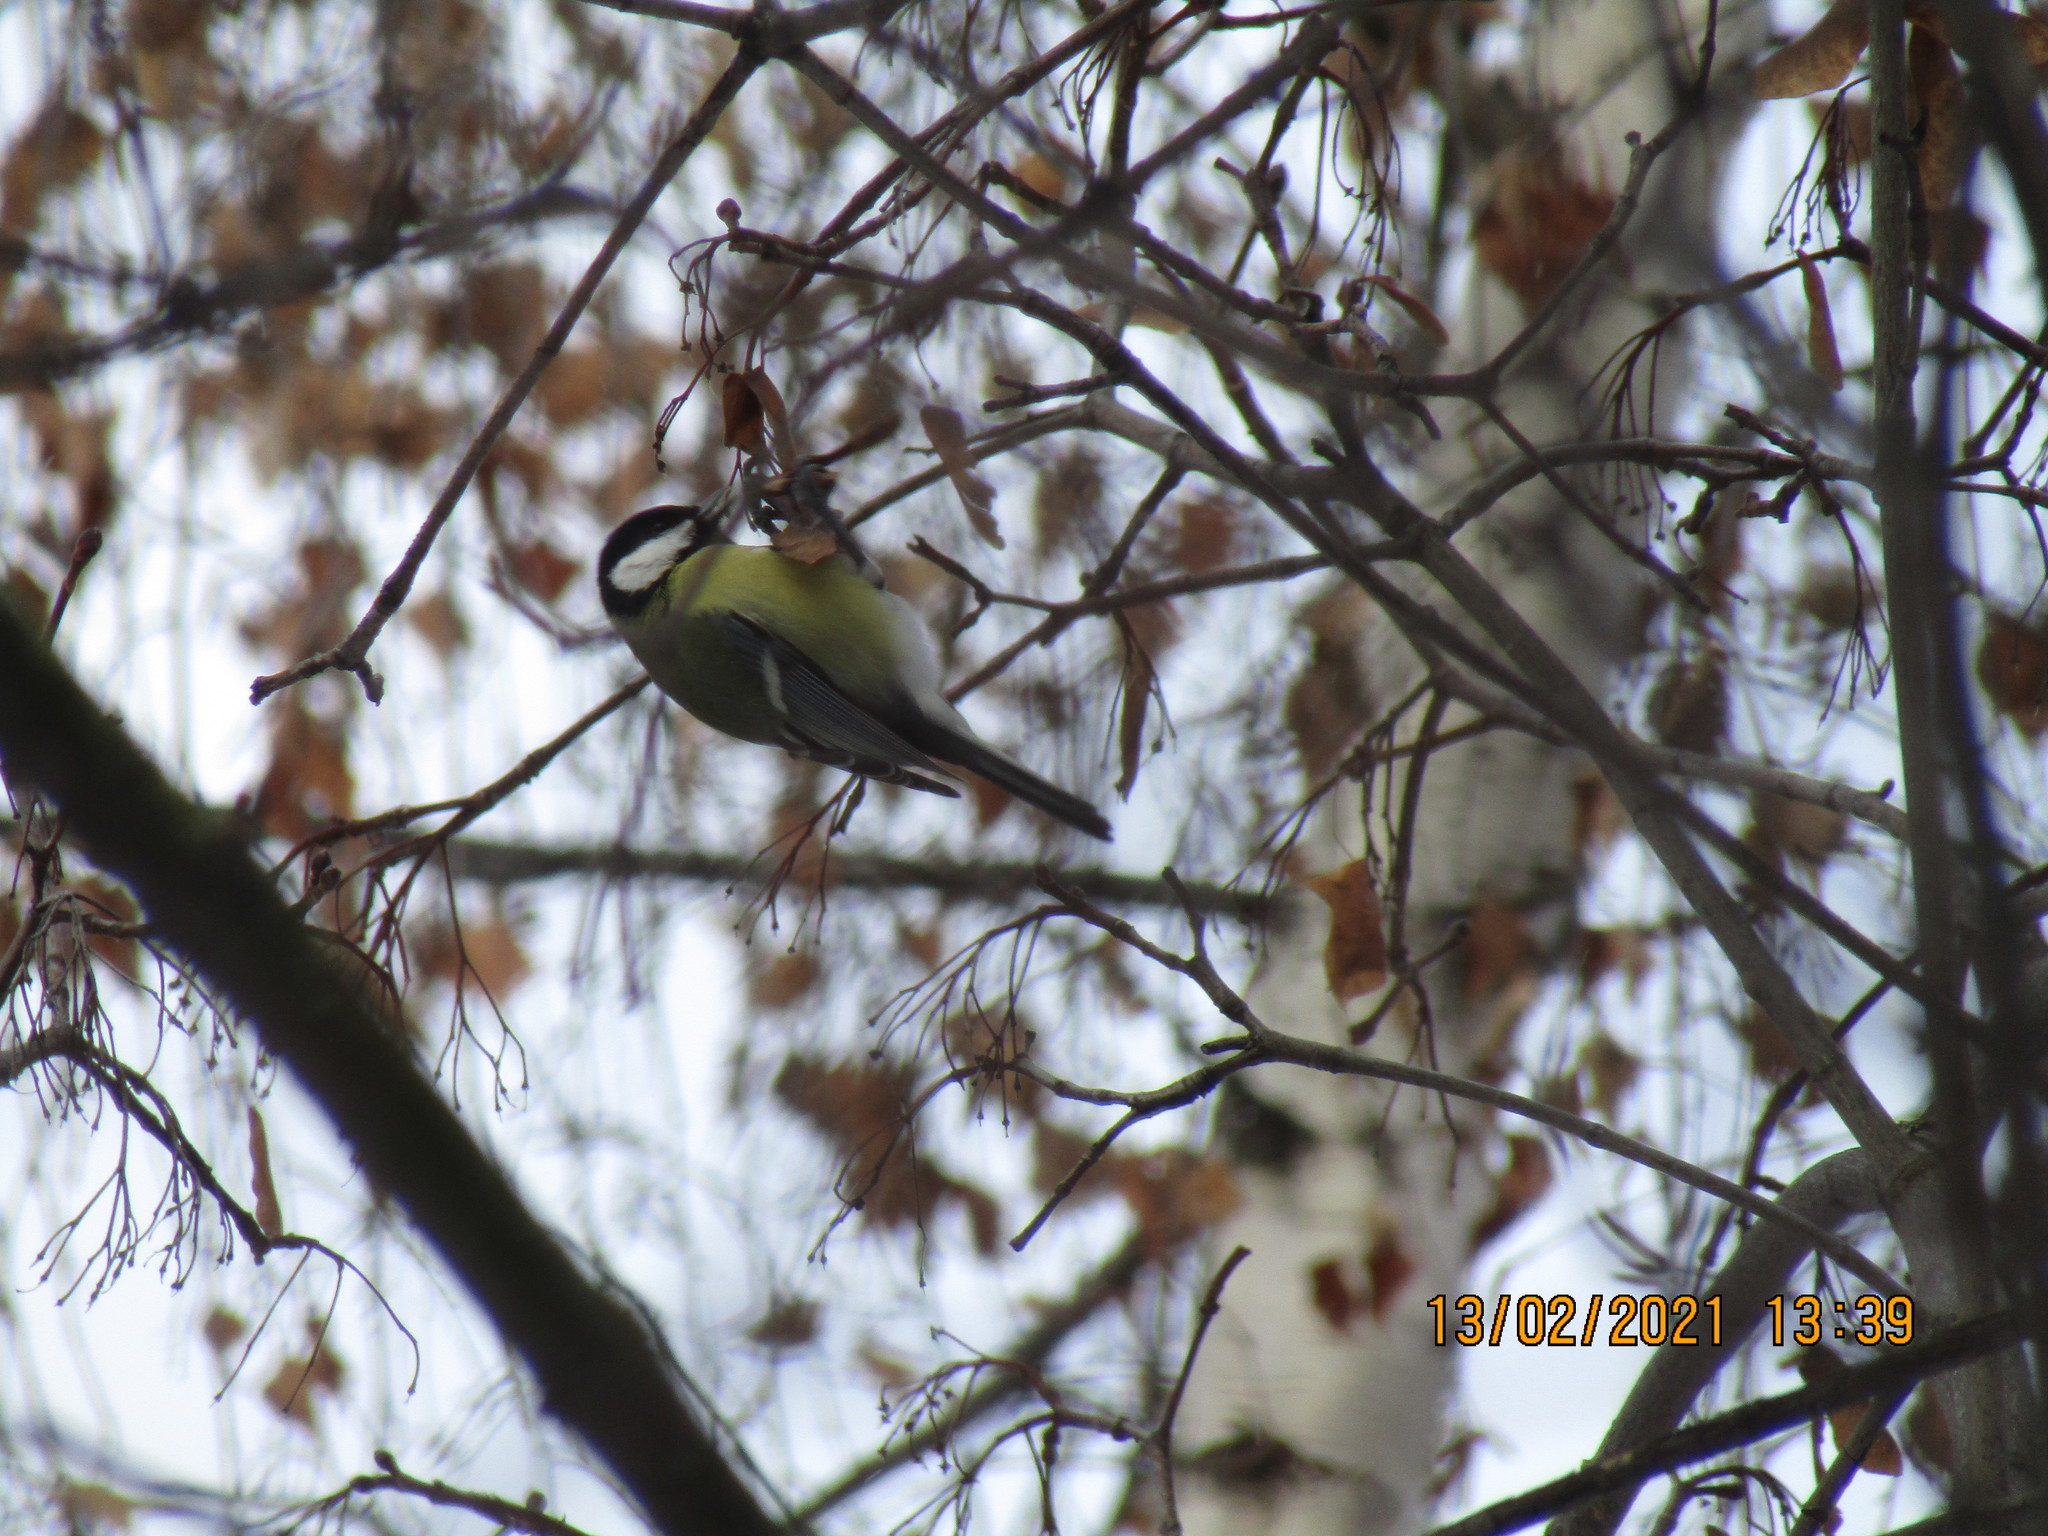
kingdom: Animalia
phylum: Chordata
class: Aves
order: Passeriformes
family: Paridae
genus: Parus
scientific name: Parus major
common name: Great tit
